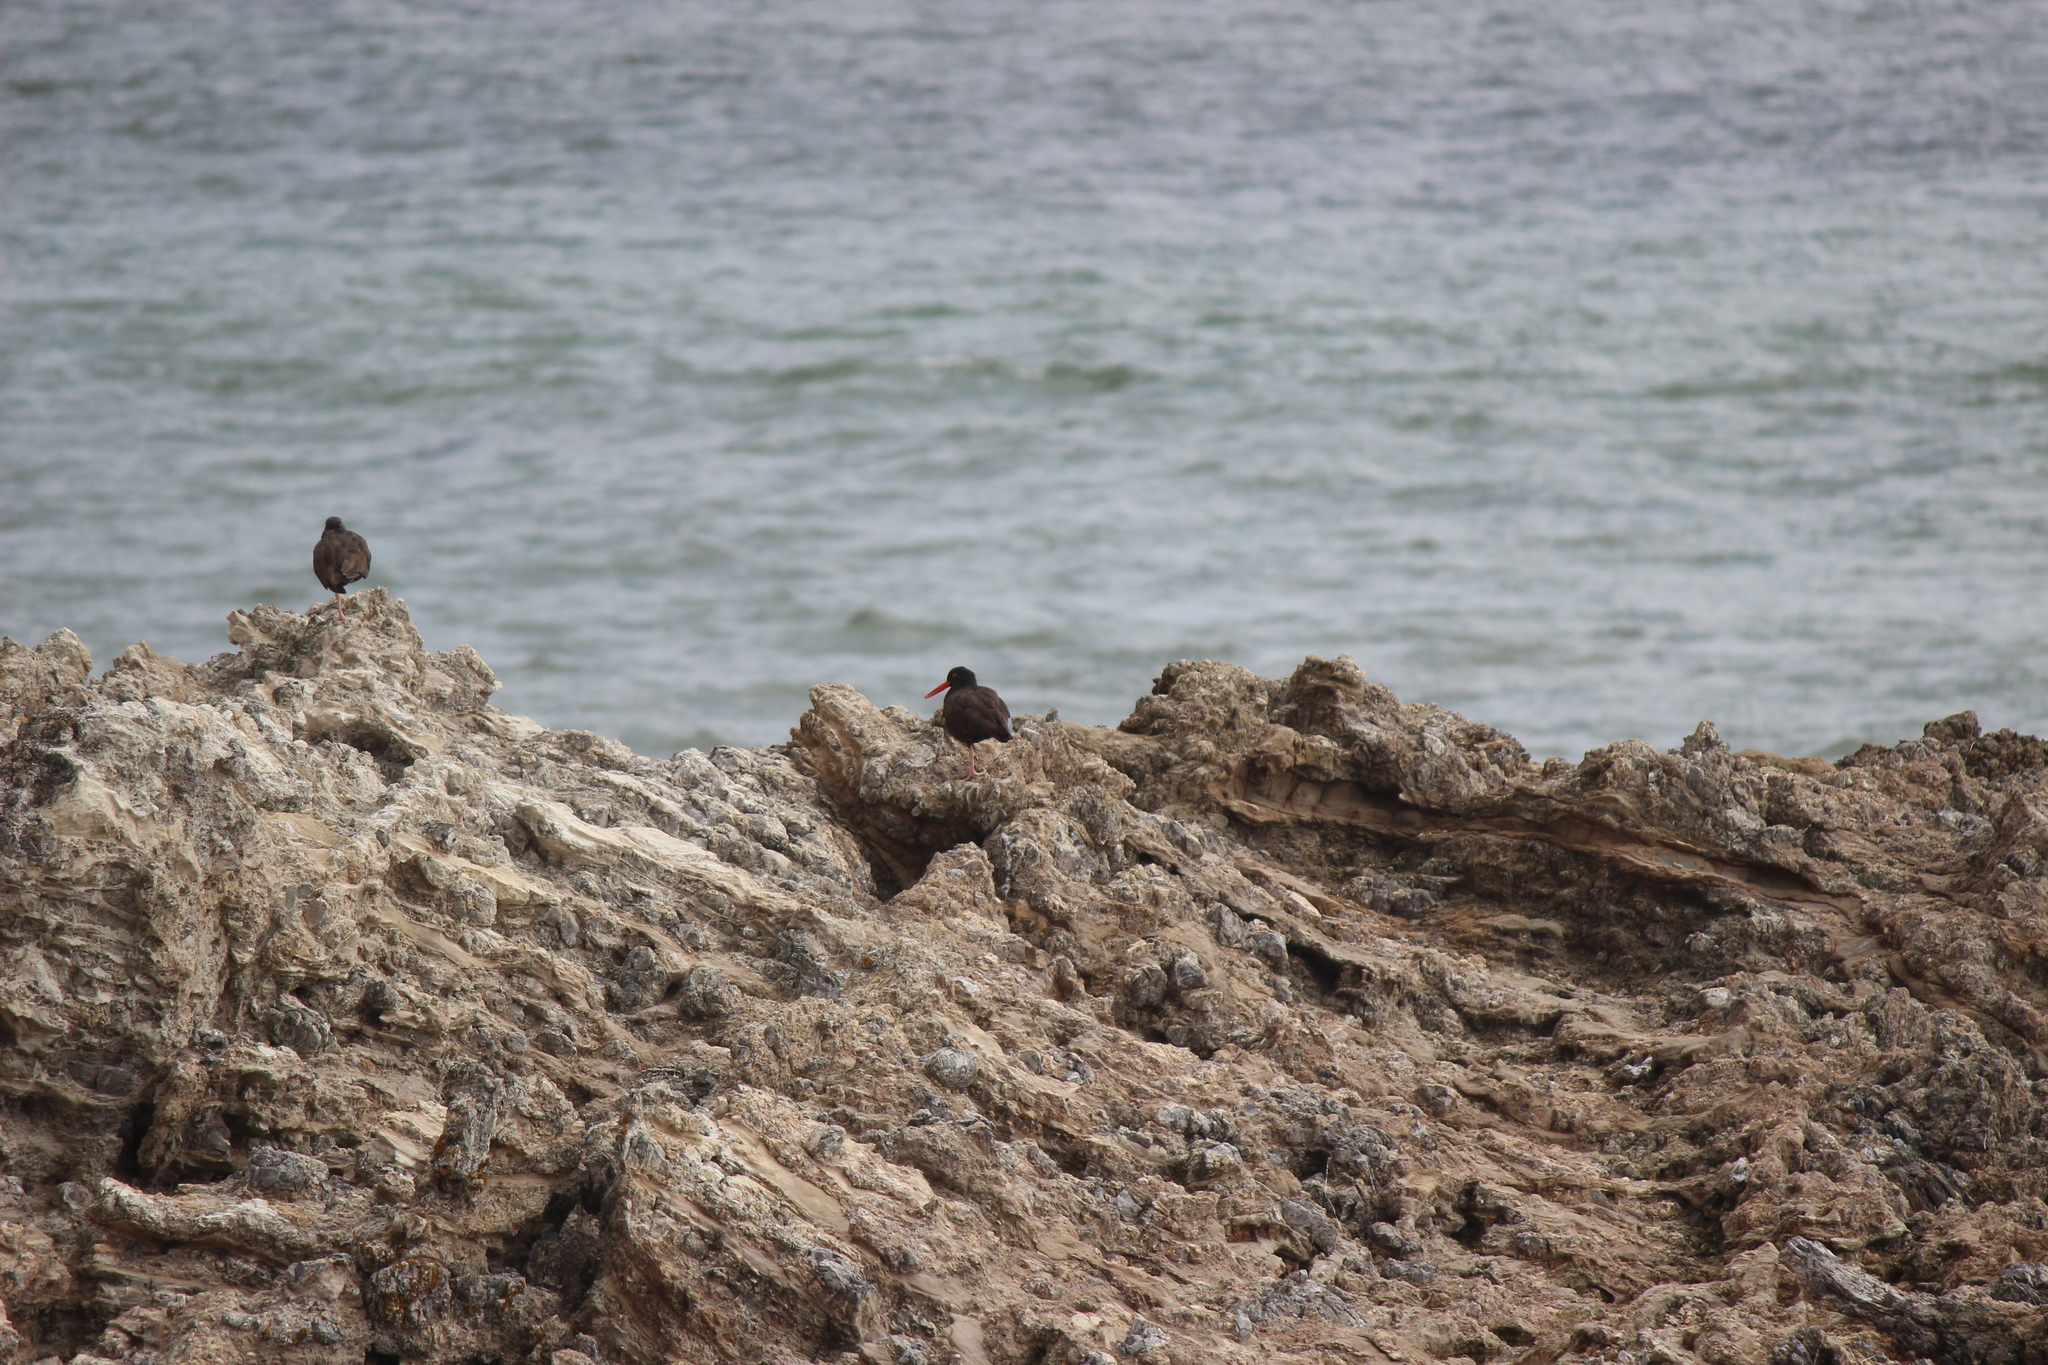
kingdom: Animalia
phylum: Chordata
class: Aves
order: Charadriiformes
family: Haematopodidae
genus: Haematopus
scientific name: Haematopus bachmani
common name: Black oystercatcher
